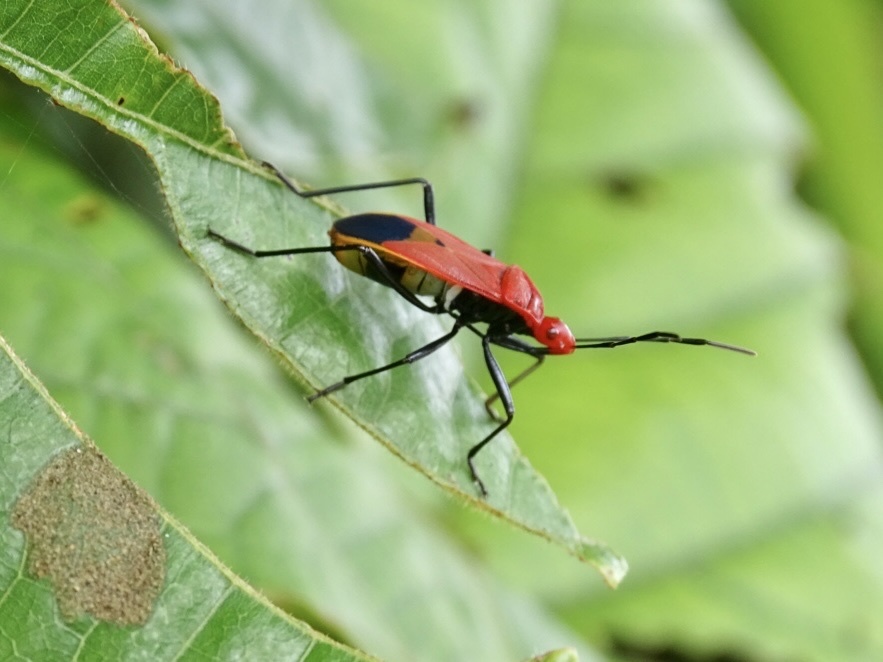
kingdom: Animalia
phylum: Arthropoda
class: Insecta
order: Hemiptera
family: Pyrrhocoridae
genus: Dindymus
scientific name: Dindymus
